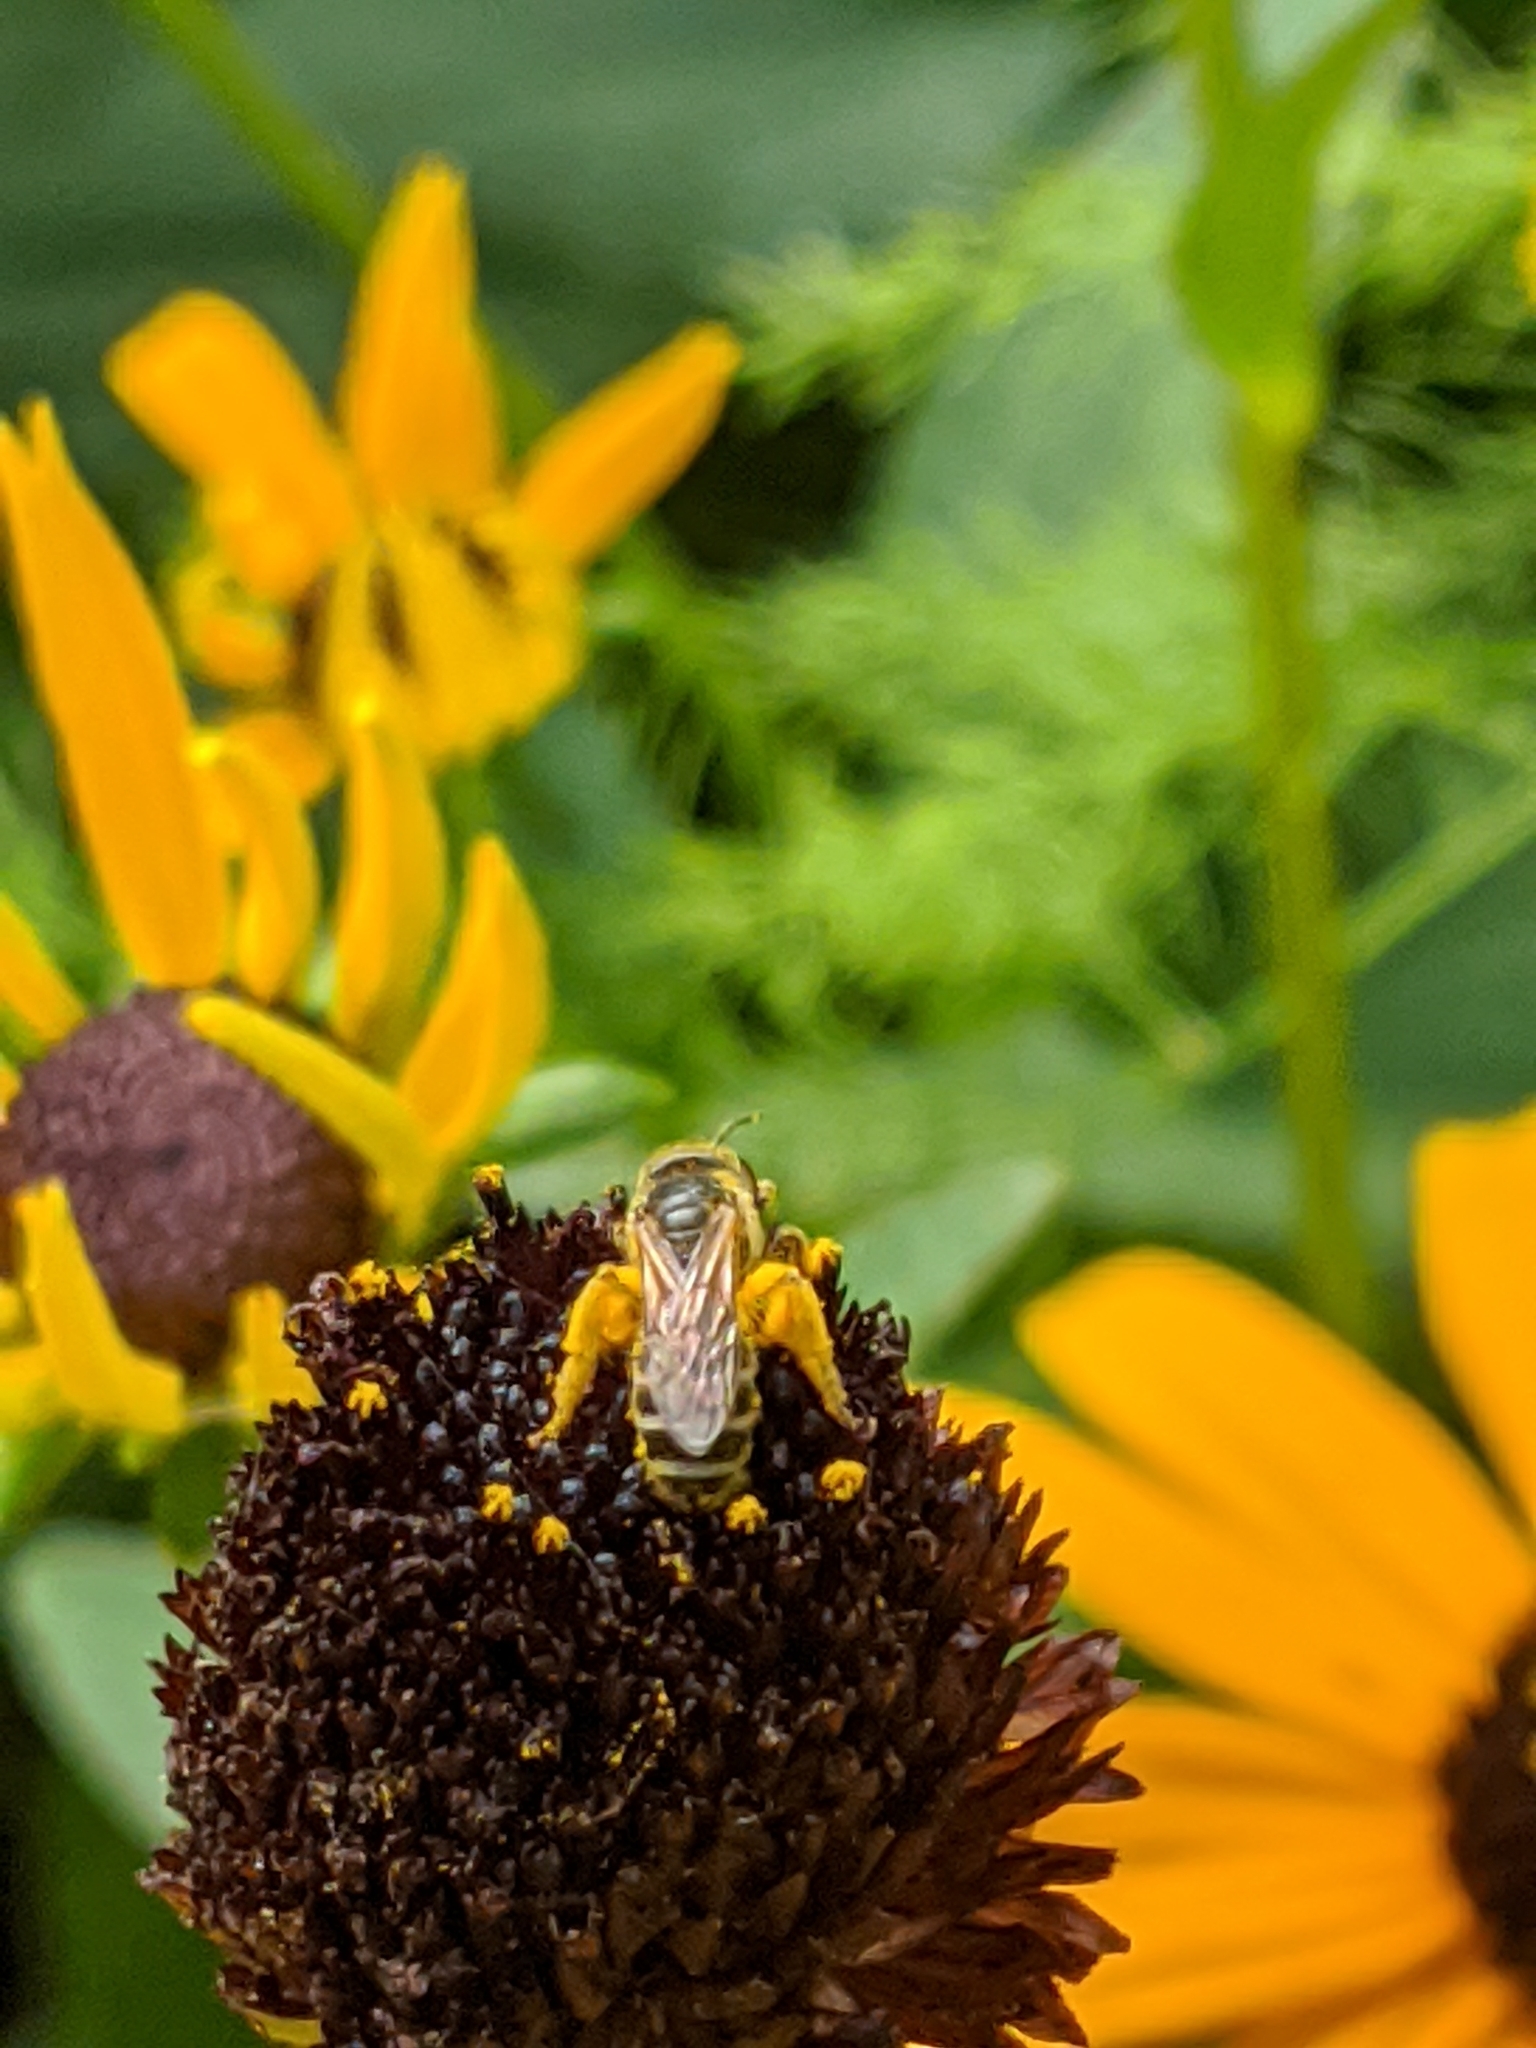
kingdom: Animalia
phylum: Arthropoda
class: Insecta
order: Hymenoptera
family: Halictidae
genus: Halictus
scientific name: Halictus ligatus
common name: Ligated furrow bee
